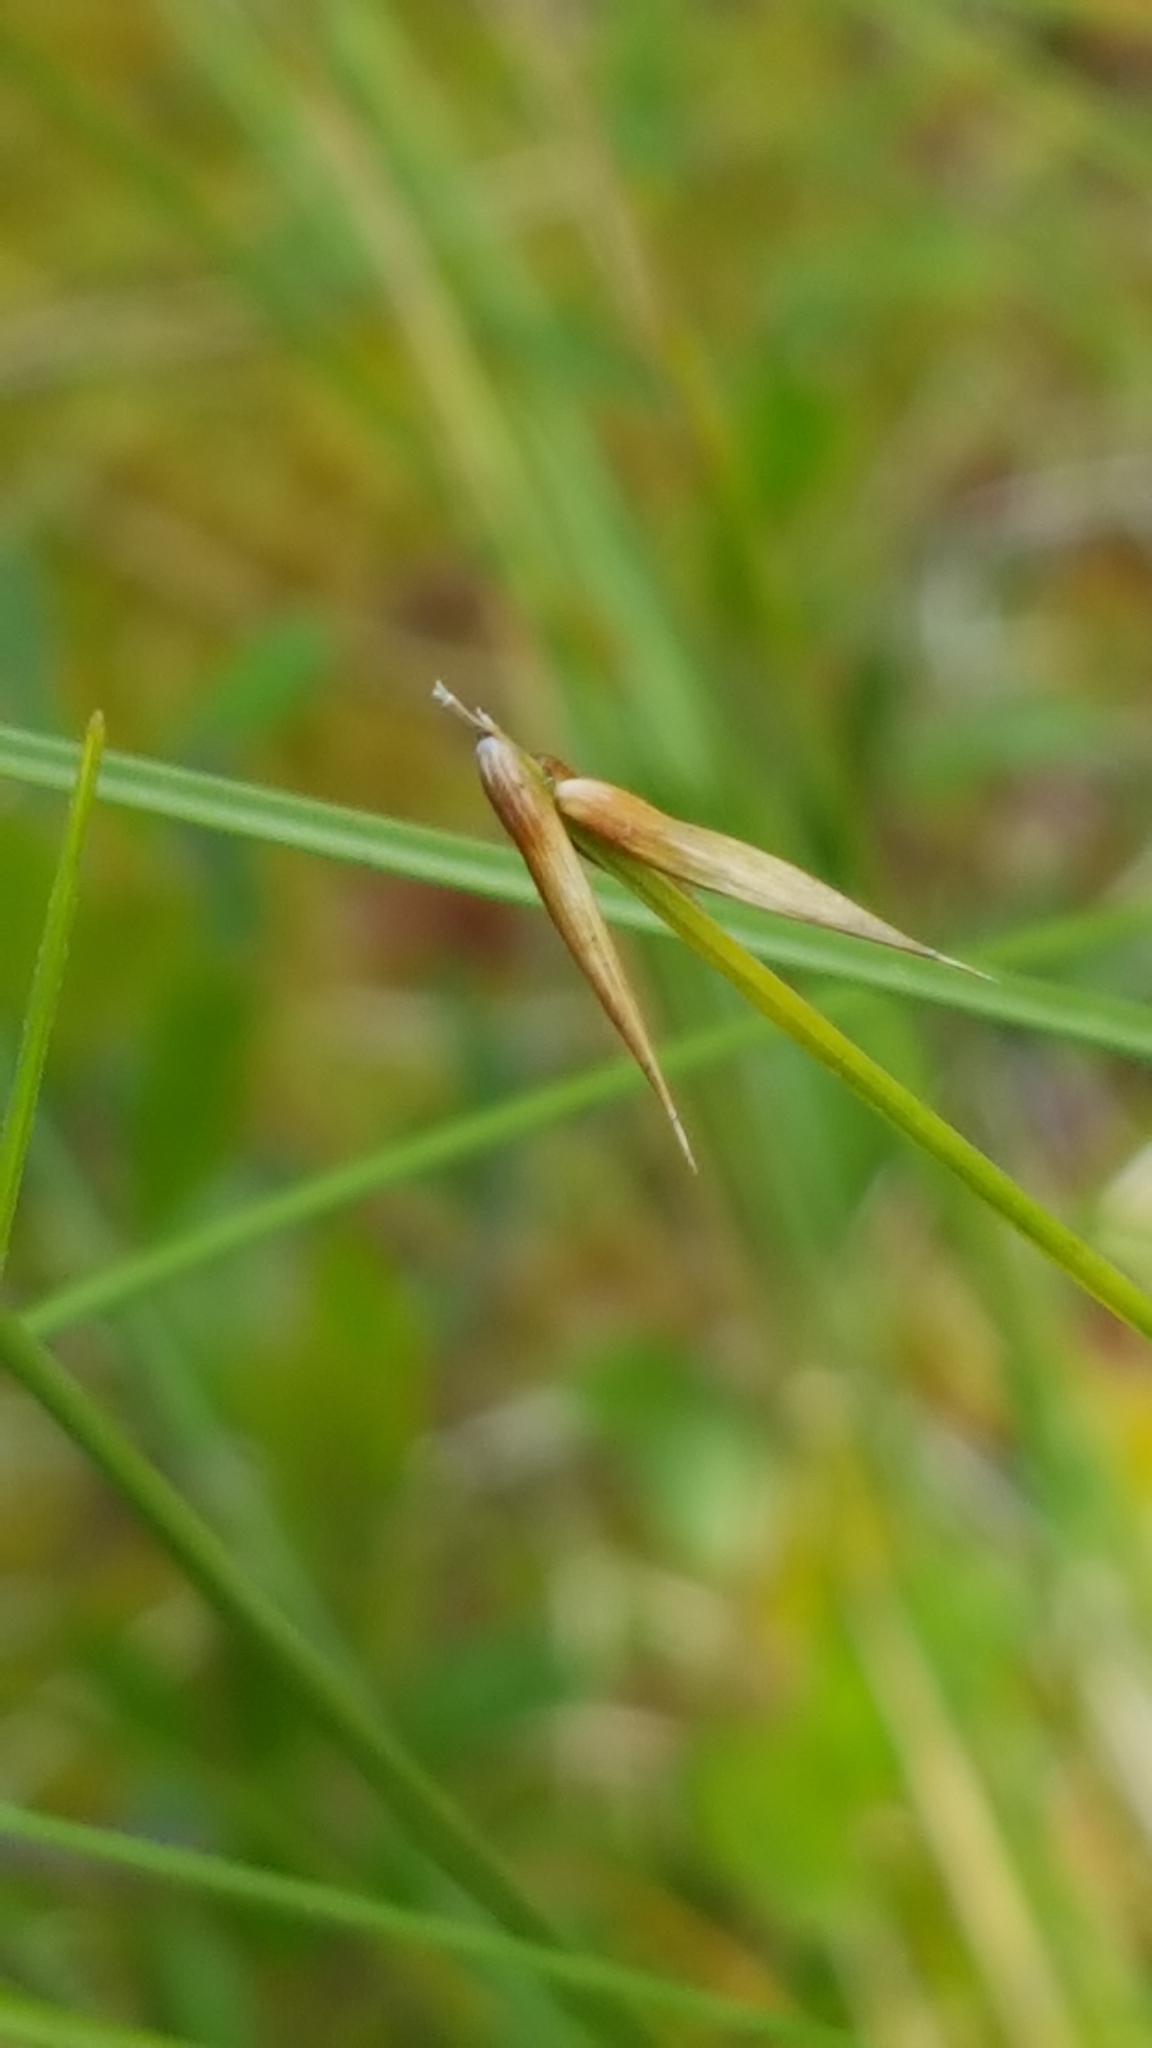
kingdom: Plantae
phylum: Tracheophyta
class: Liliopsida
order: Poales
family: Cyperaceae
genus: Carex
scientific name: Carex pauciflora
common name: Few-flowered sedge
